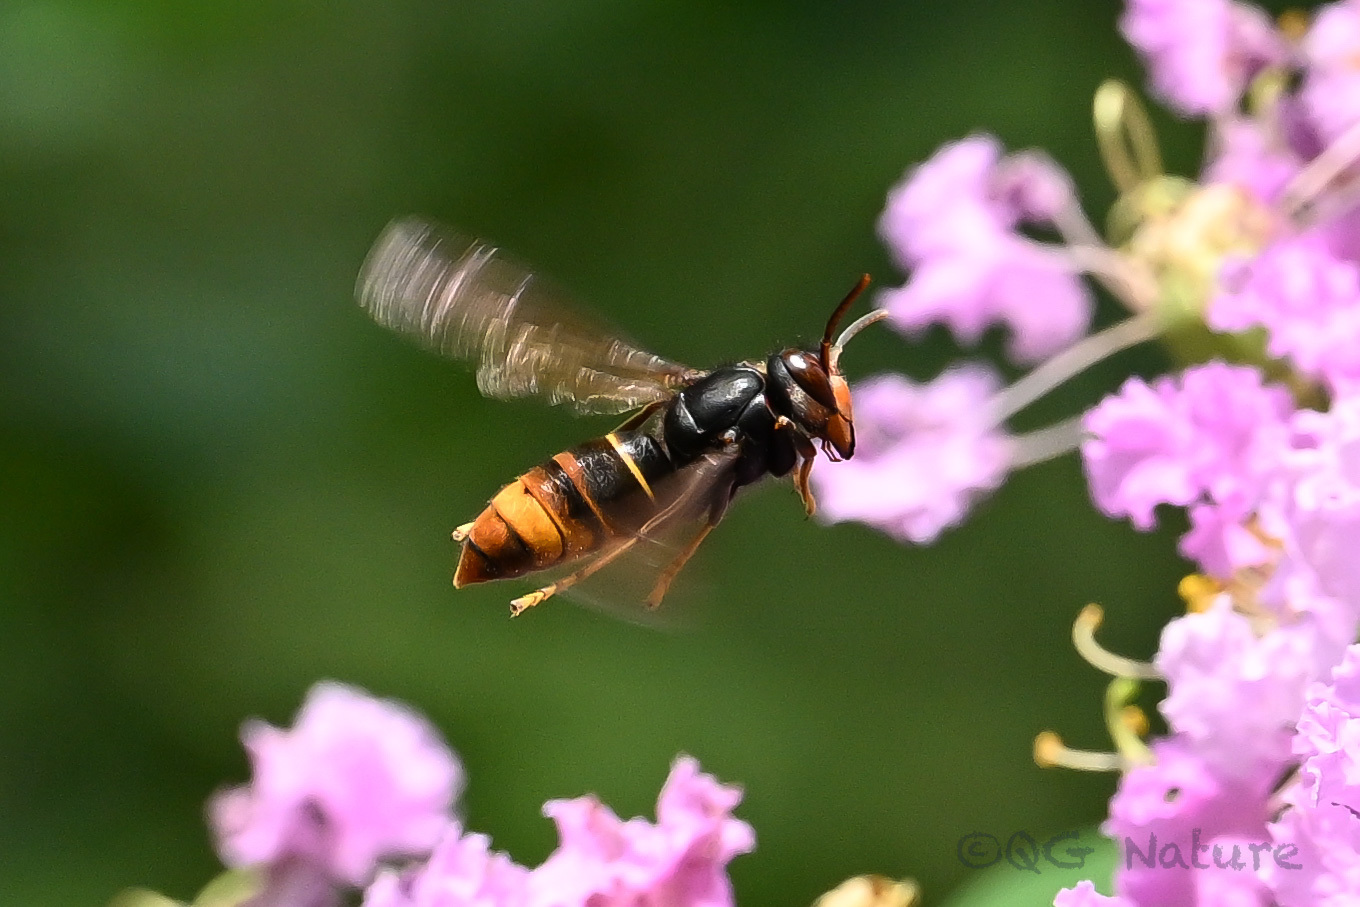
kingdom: Animalia
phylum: Arthropoda
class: Insecta
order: Hymenoptera
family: Vespidae
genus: Vespa
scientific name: Vespa velutina
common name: Asian hornet
